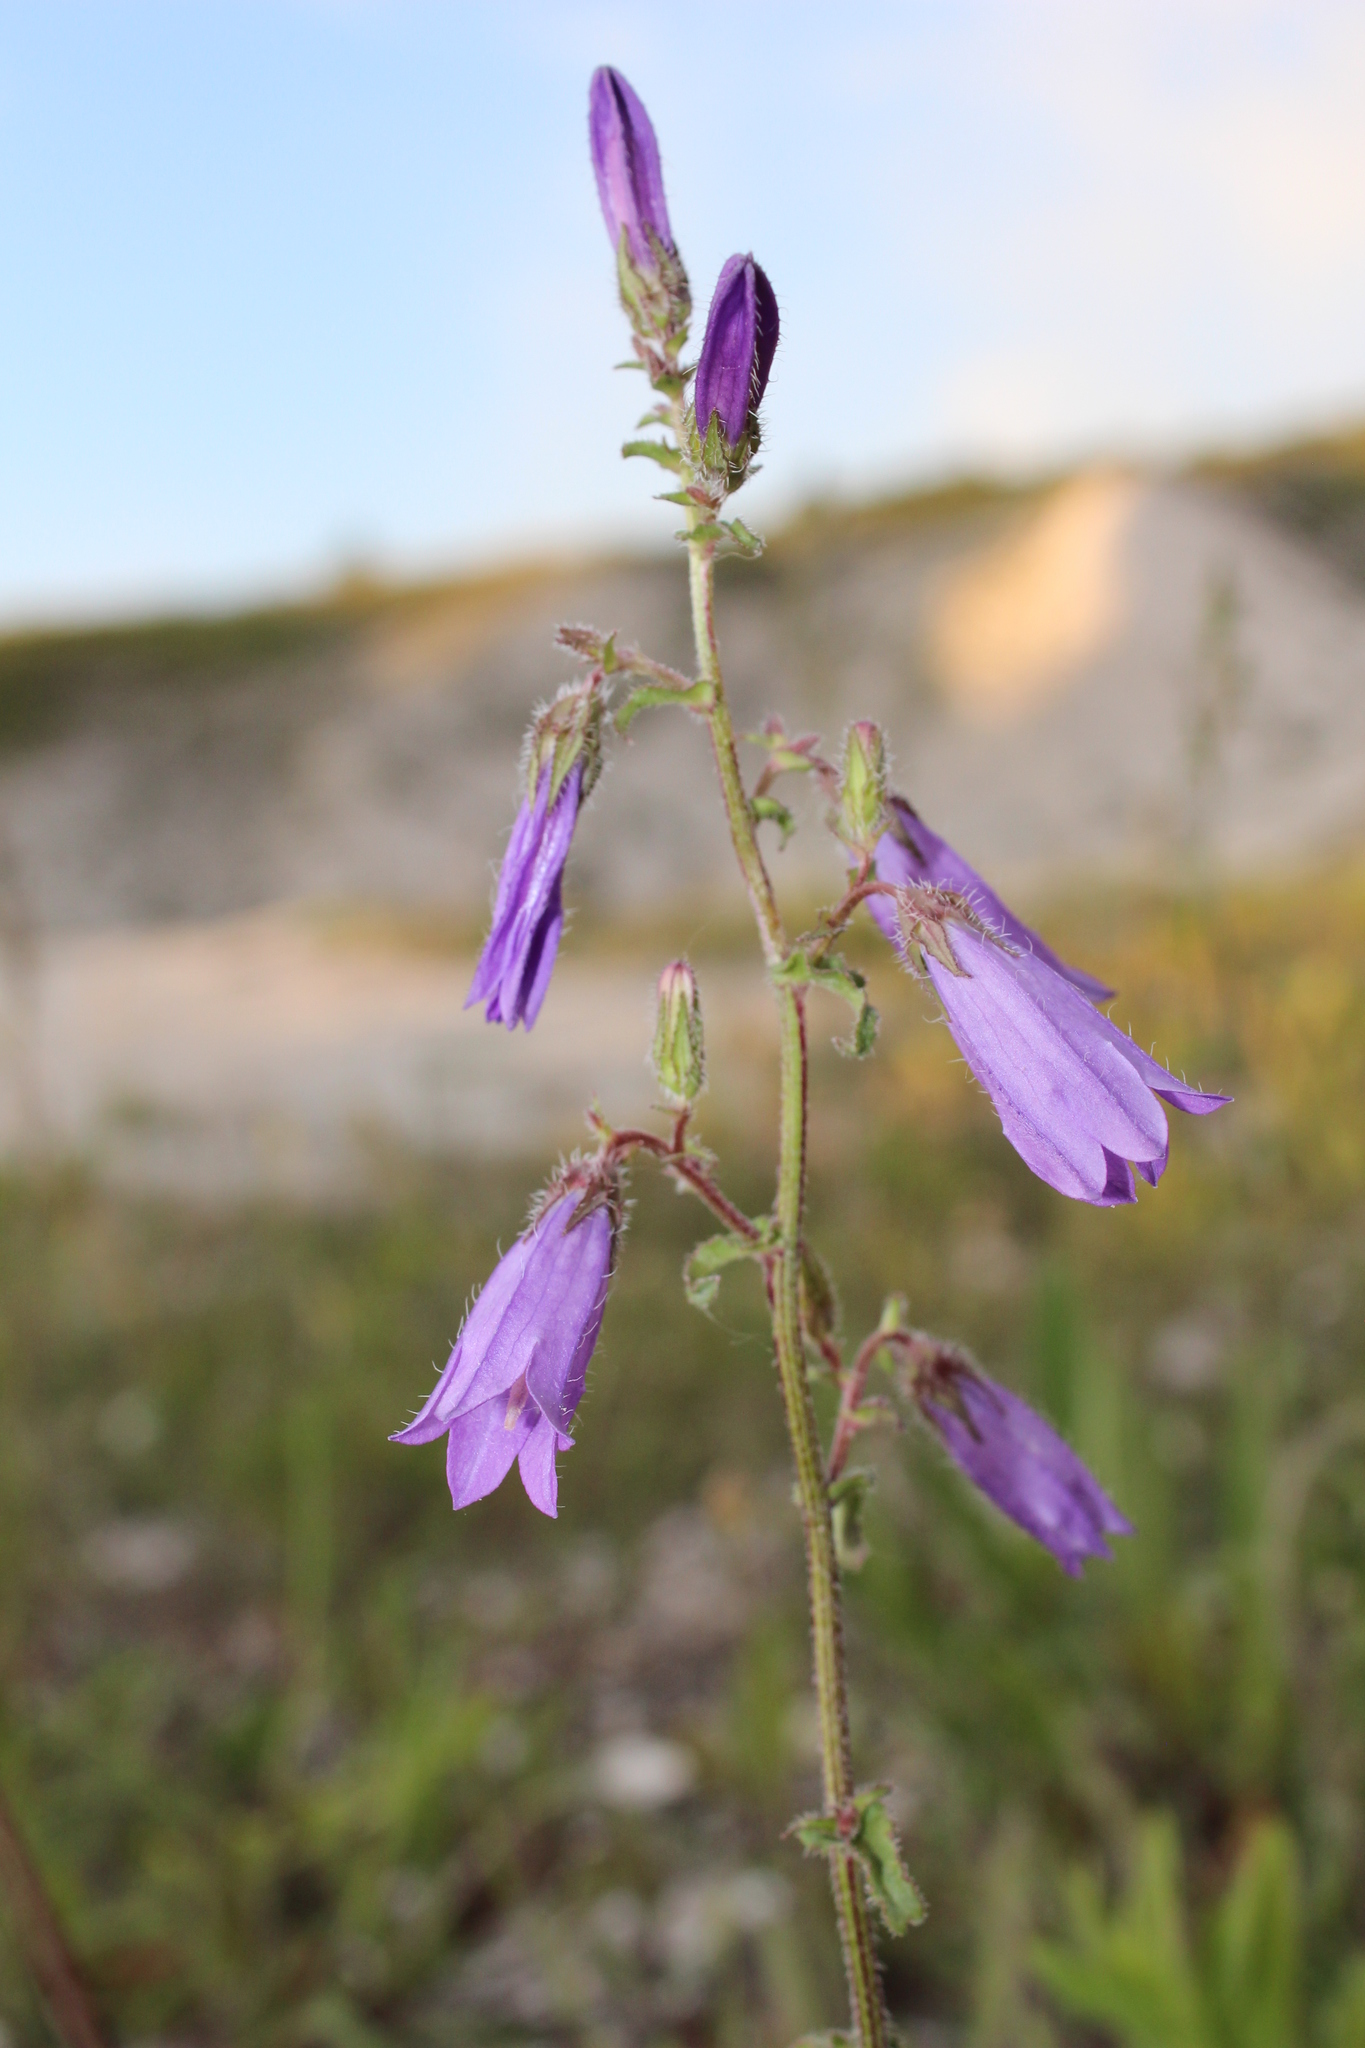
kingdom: Plantae
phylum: Tracheophyta
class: Magnoliopsida
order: Asterales
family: Campanulaceae
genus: Campanula
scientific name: Campanula sibirica
